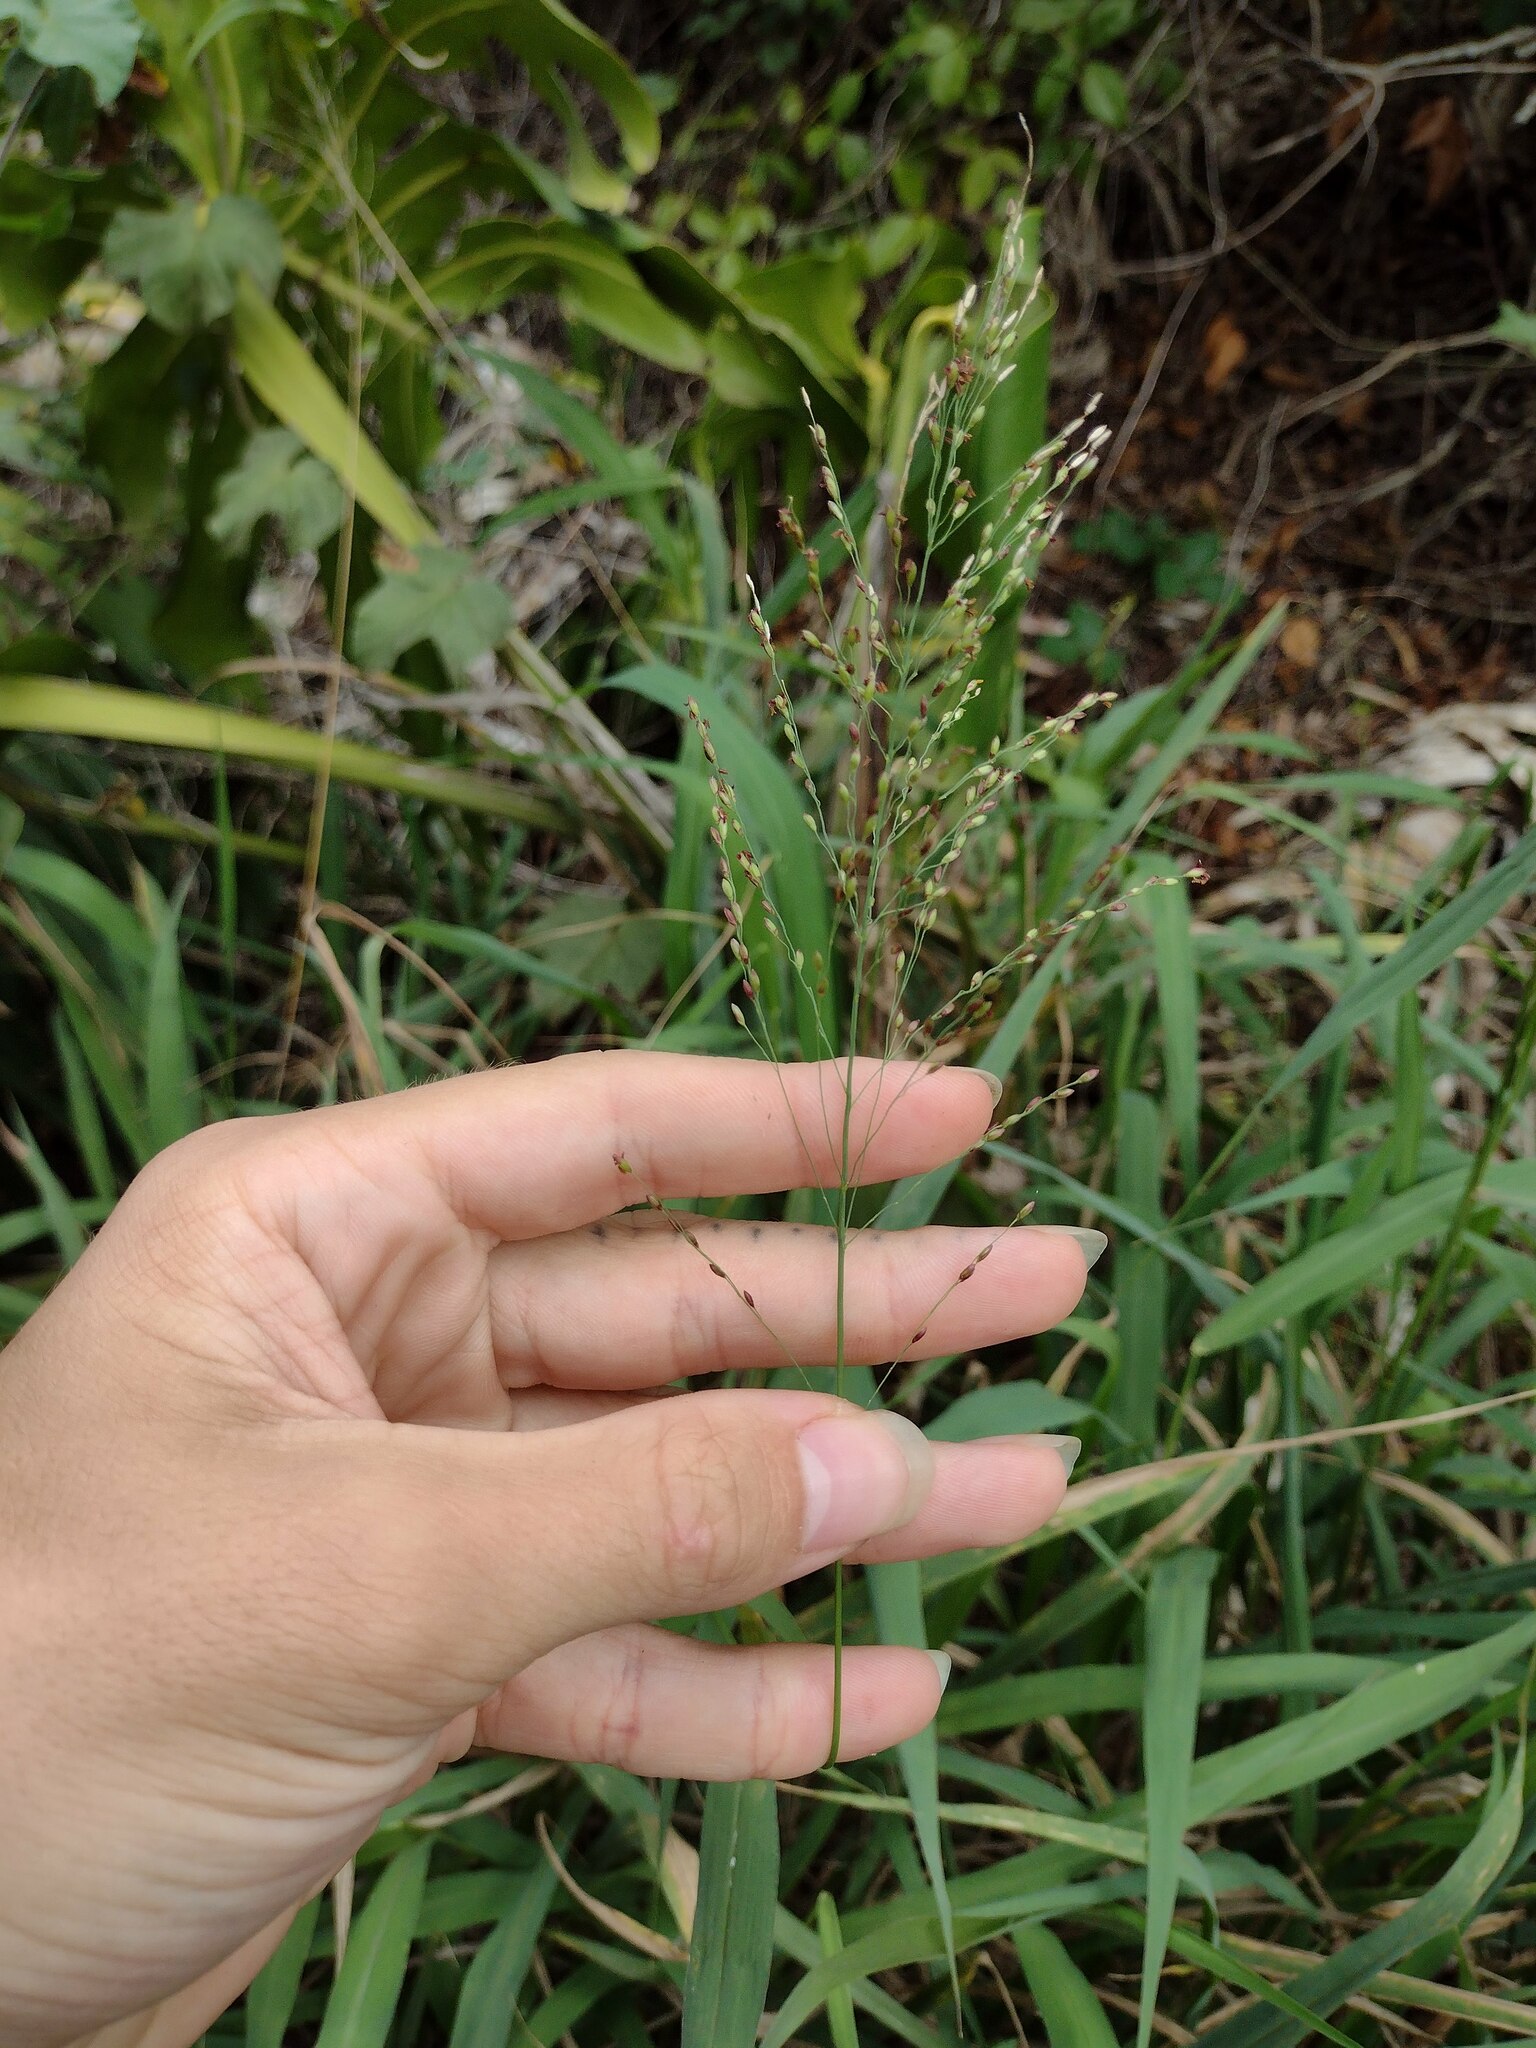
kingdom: Plantae
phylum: Tracheophyta
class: Liliopsida
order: Poales
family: Poaceae
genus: Megathyrsus
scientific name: Megathyrsus maximus
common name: Guineagrass
